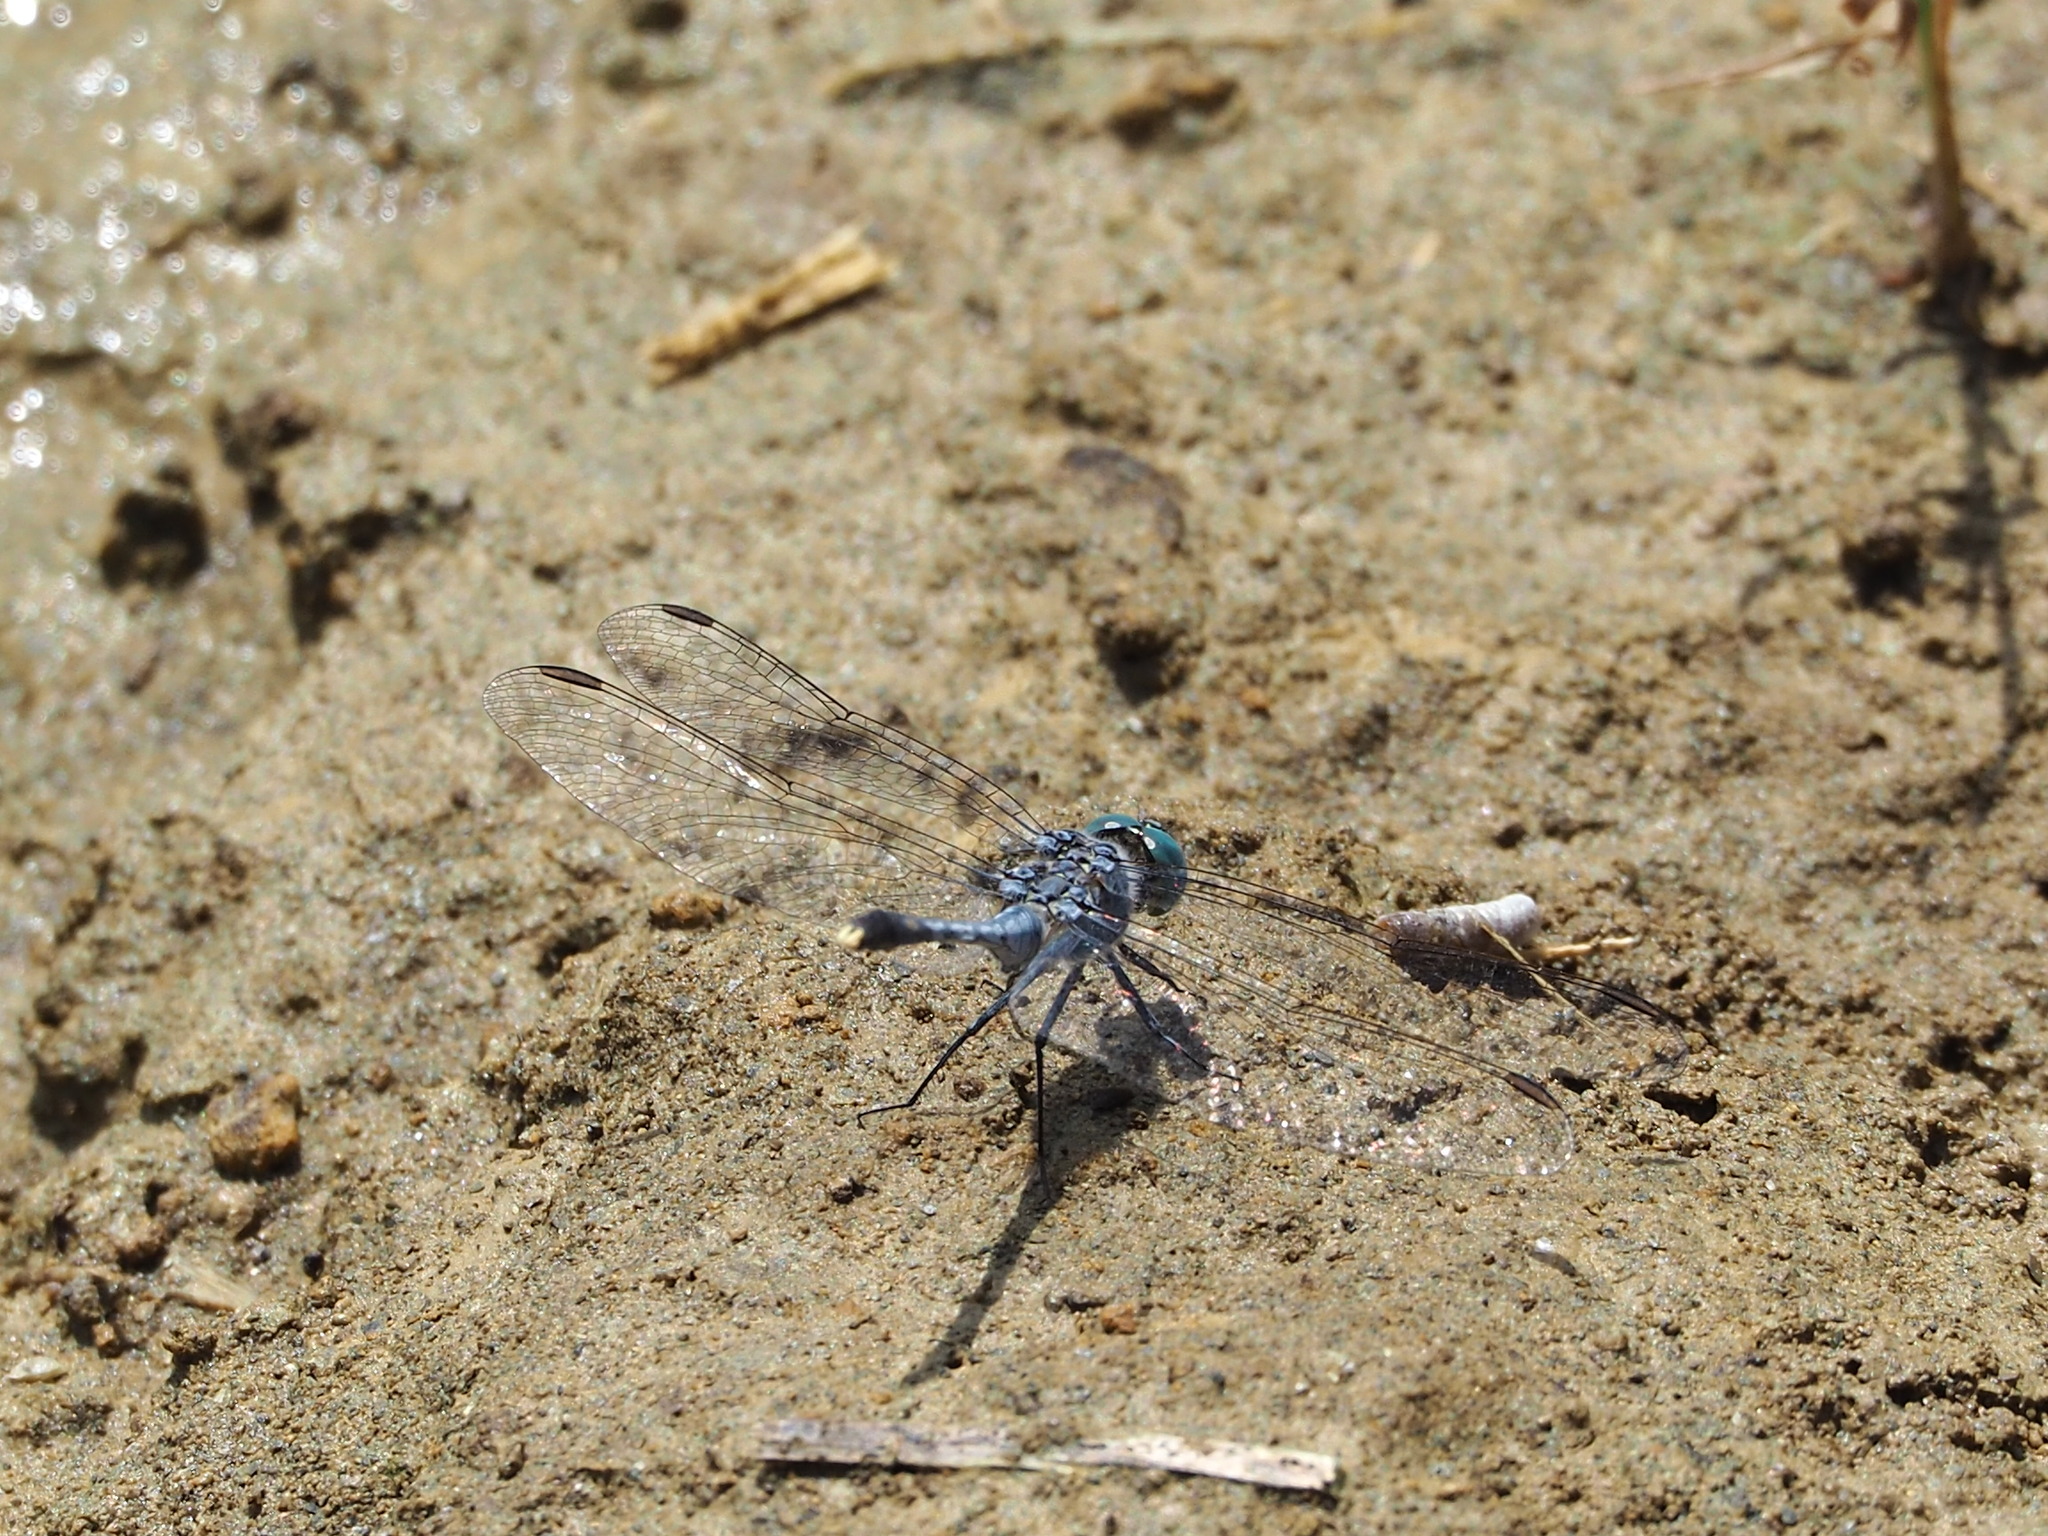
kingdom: Animalia
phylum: Arthropoda
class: Insecta
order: Odonata
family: Libellulidae
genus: Diplacodes
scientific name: Diplacodes trivialis
